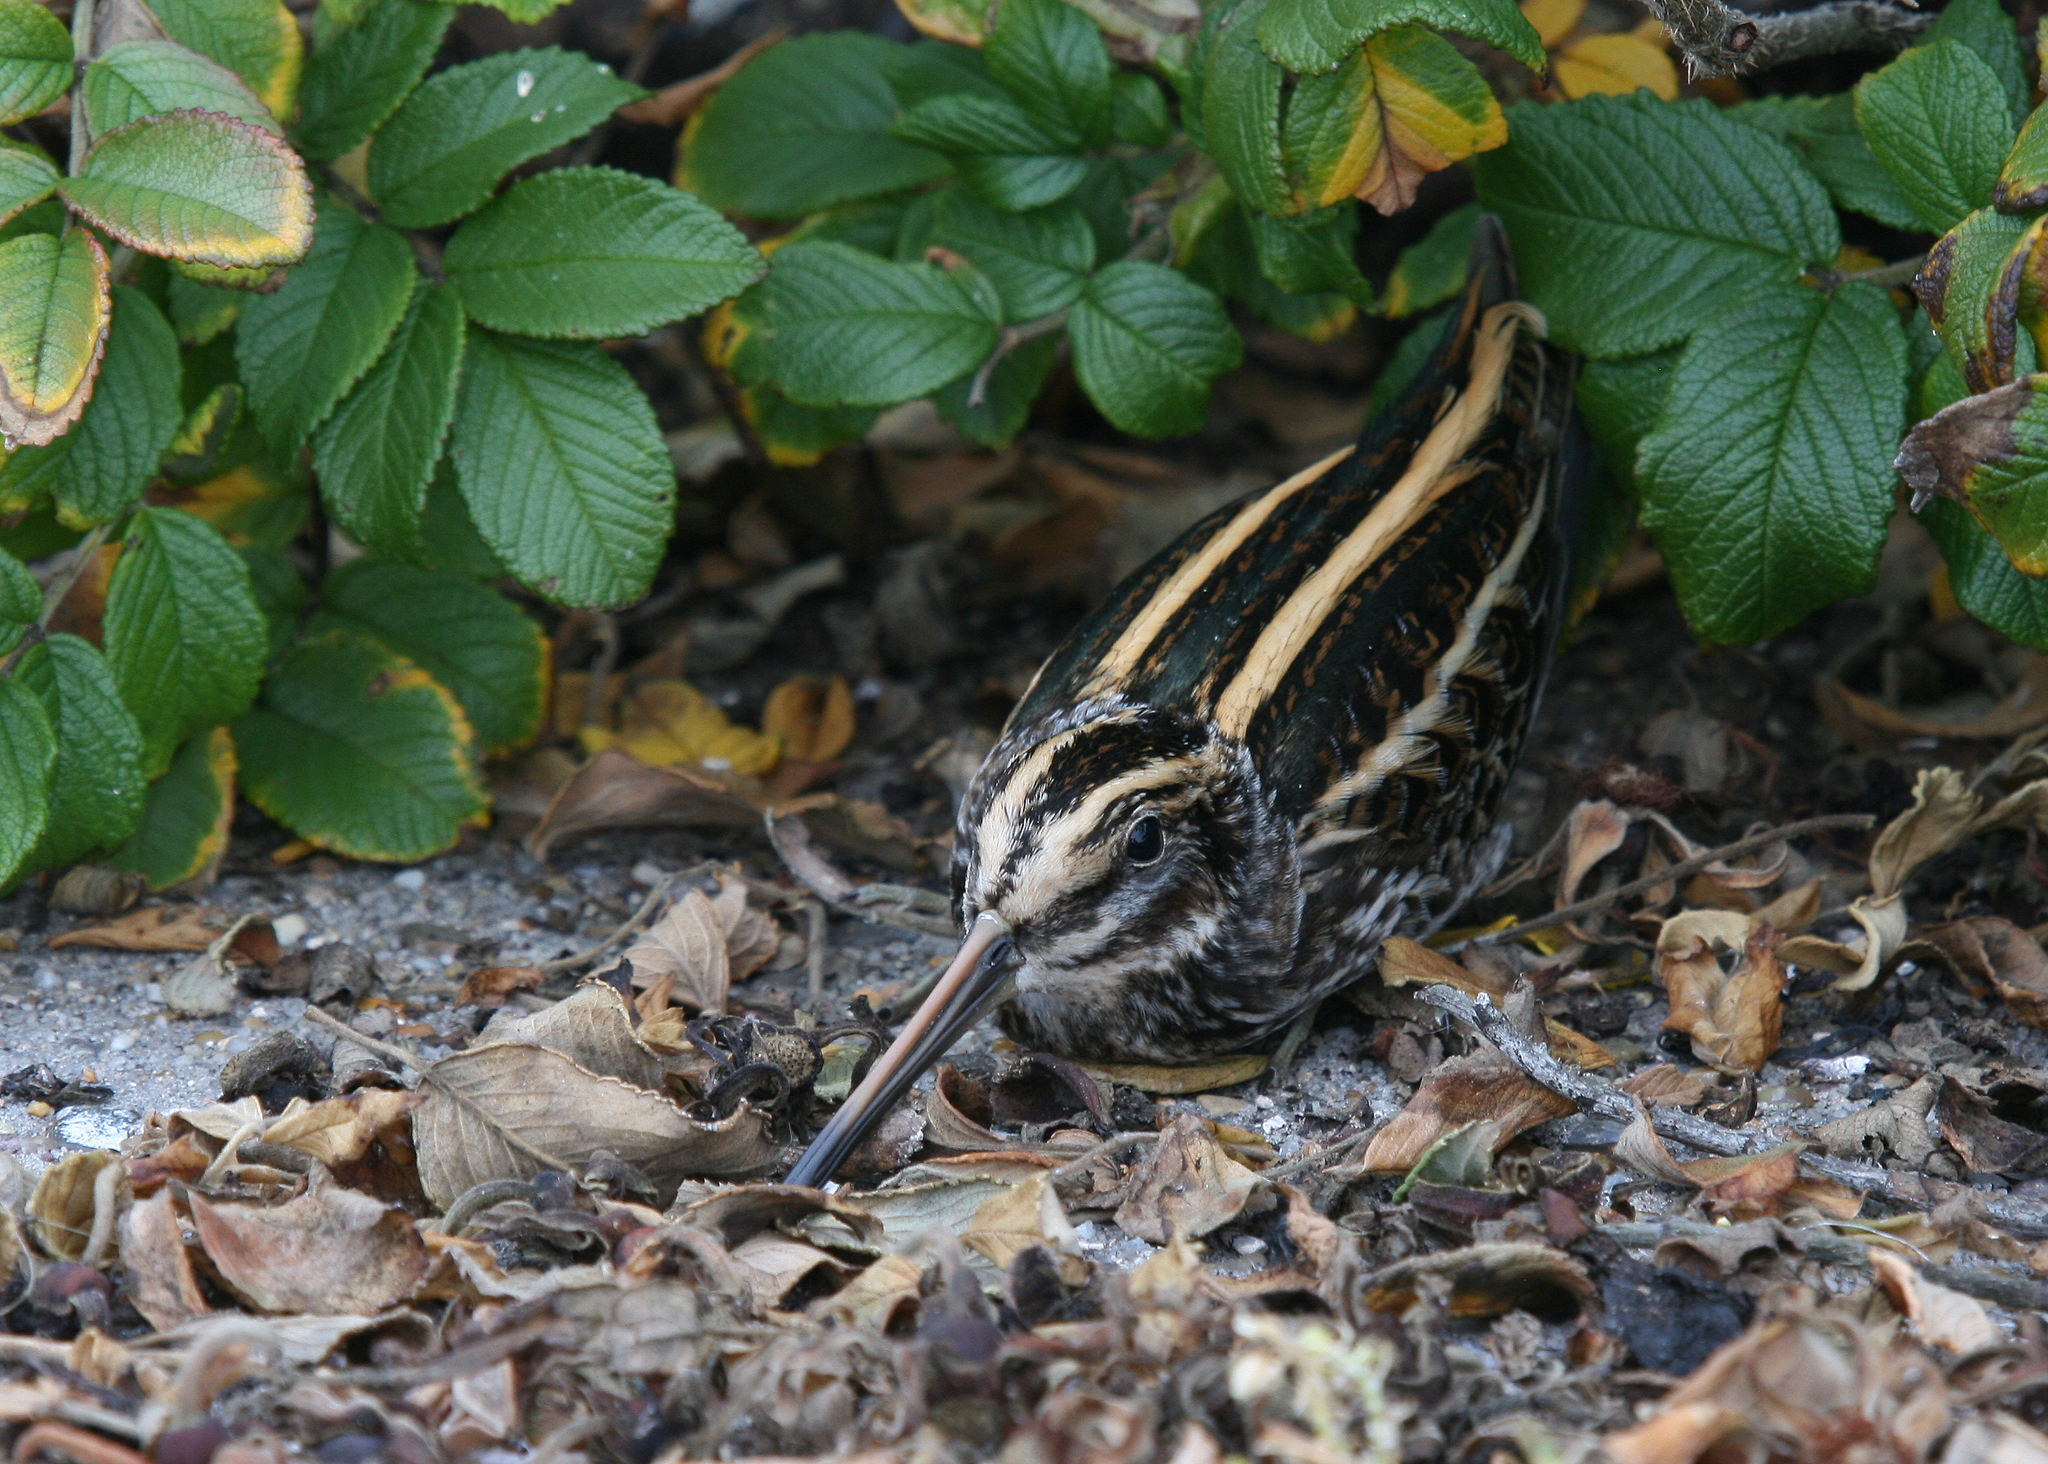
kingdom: Animalia
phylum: Chordata
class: Aves
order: Charadriiformes
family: Scolopacidae
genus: Lymnocryptes
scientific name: Lymnocryptes minimus
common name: Jack snipe
